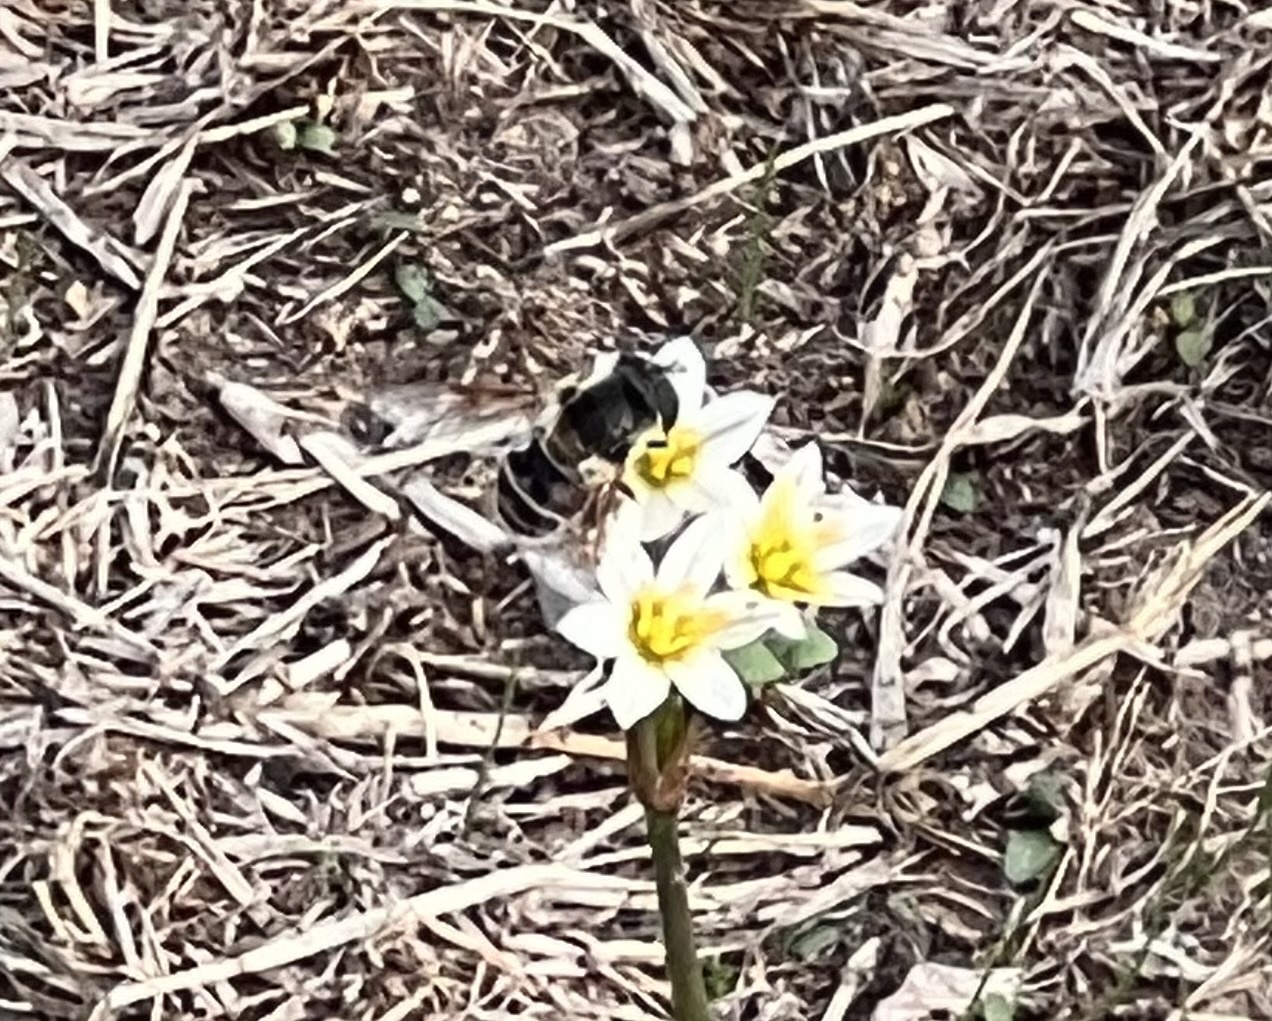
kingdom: Animalia
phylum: Arthropoda
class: Insecta
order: Diptera
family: Syrphidae
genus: Eristalis
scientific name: Eristalis stipator
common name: Yellow-shouldered drone fly
